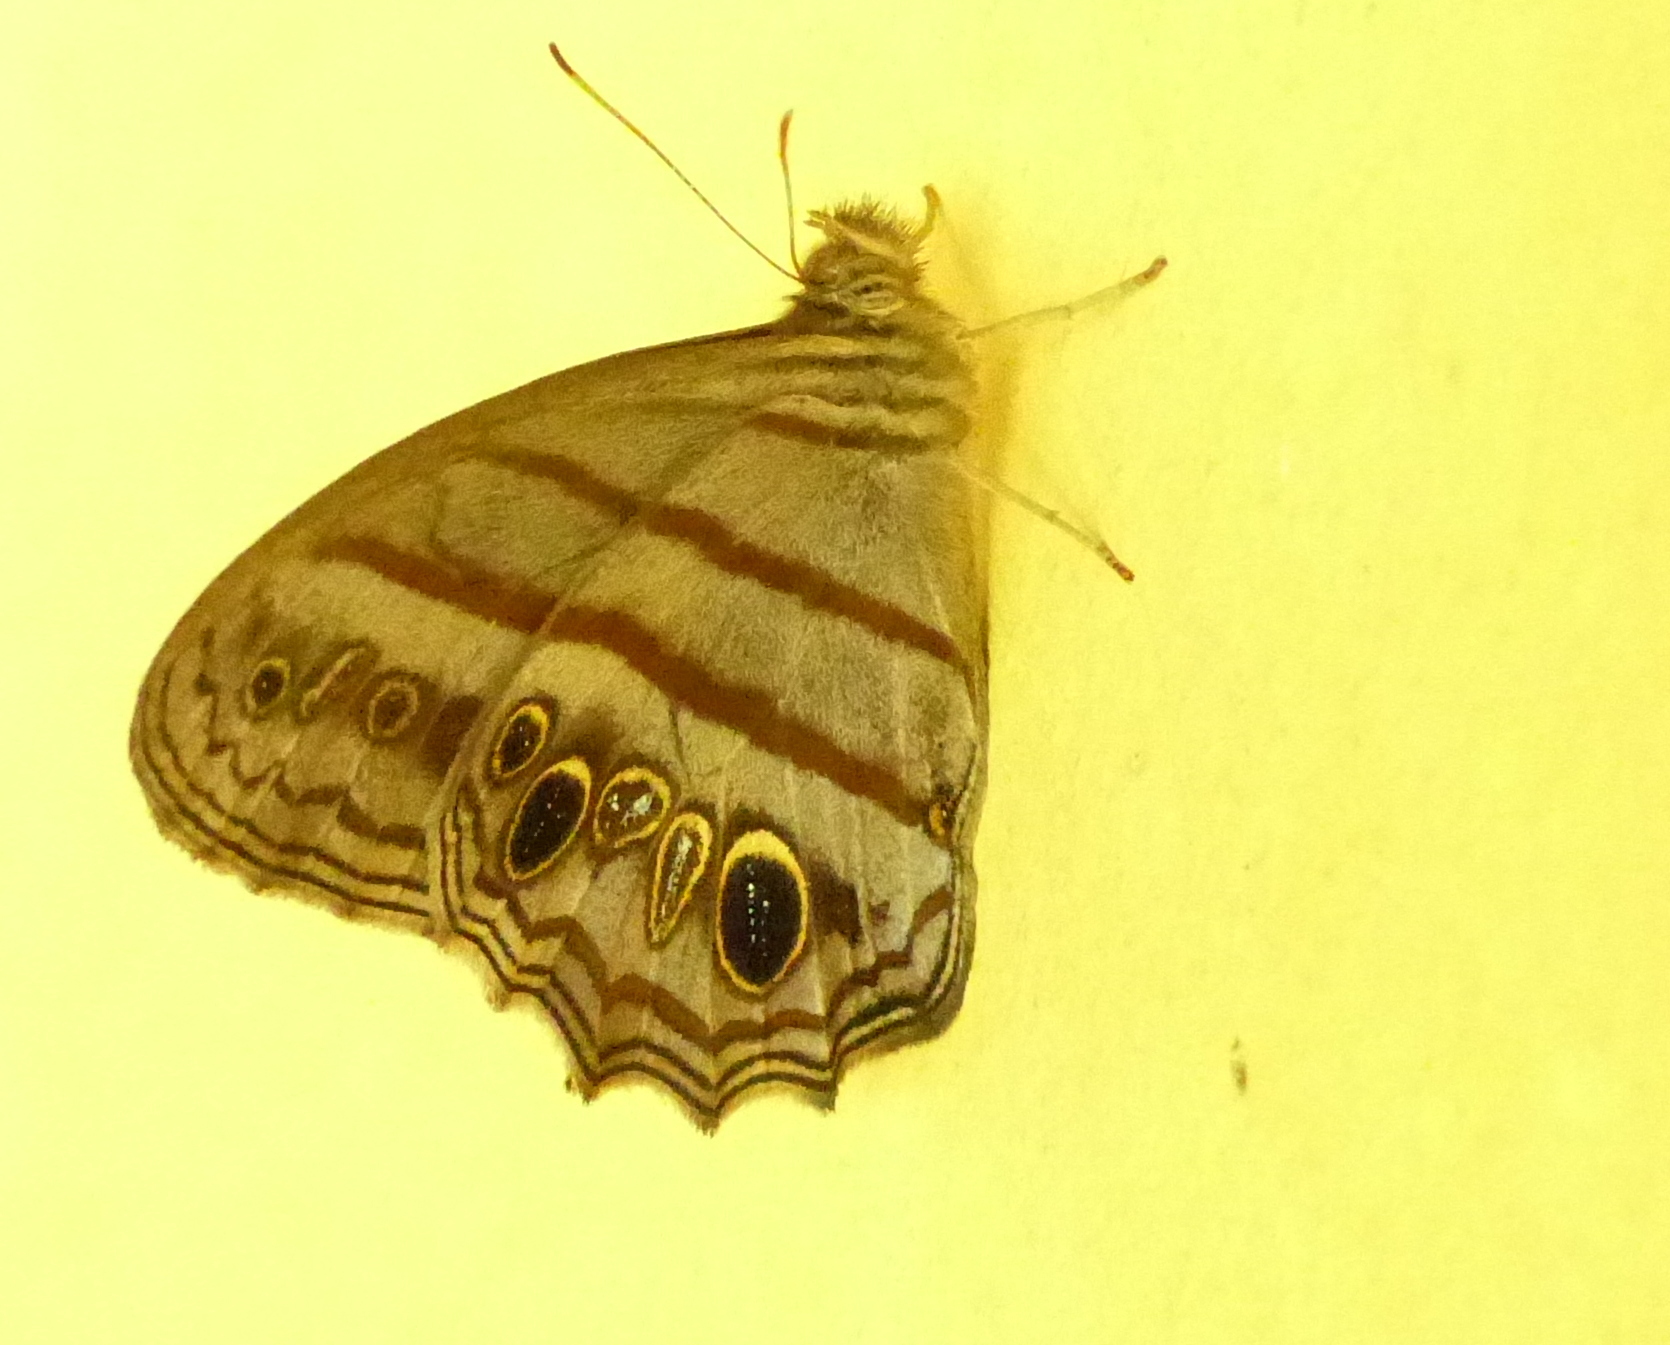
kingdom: Animalia
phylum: Arthropoda
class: Insecta
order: Lepidoptera
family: Nymphalidae
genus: Magneuptychia
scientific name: Magneuptychia libye
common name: Blue-gray satyr
